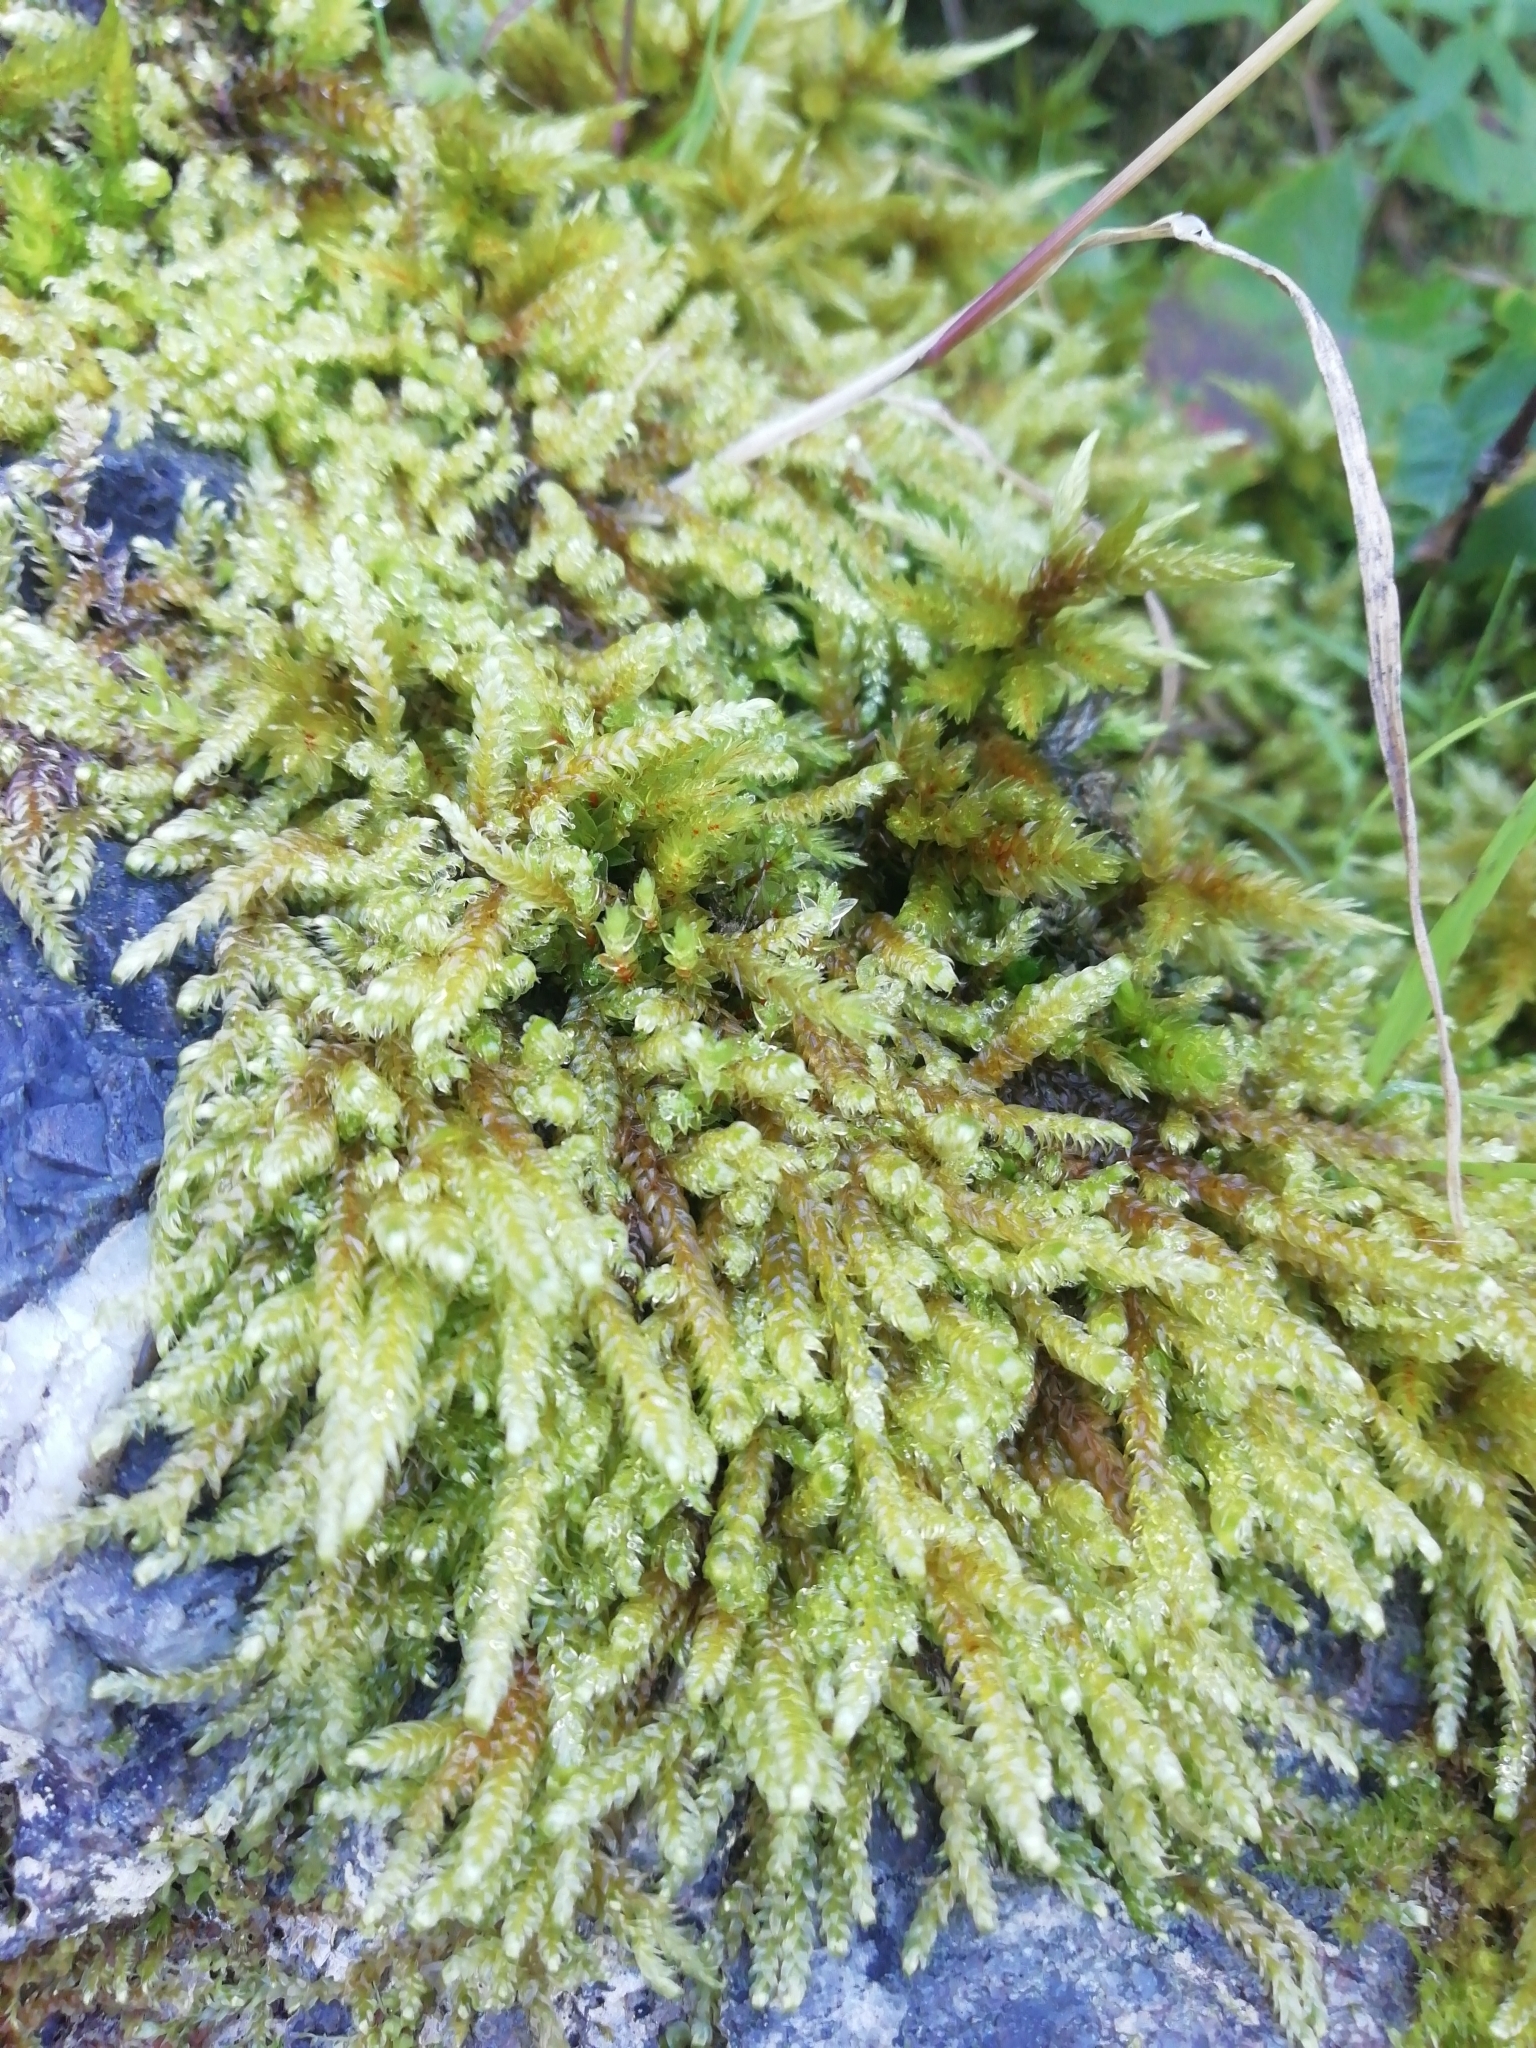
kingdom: Plantae
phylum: Bryophyta
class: Bryopsida
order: Hypnales
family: Hylocomiaceae
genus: Pleurozium
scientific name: Pleurozium schreberi
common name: Red-stemmed feather moss
